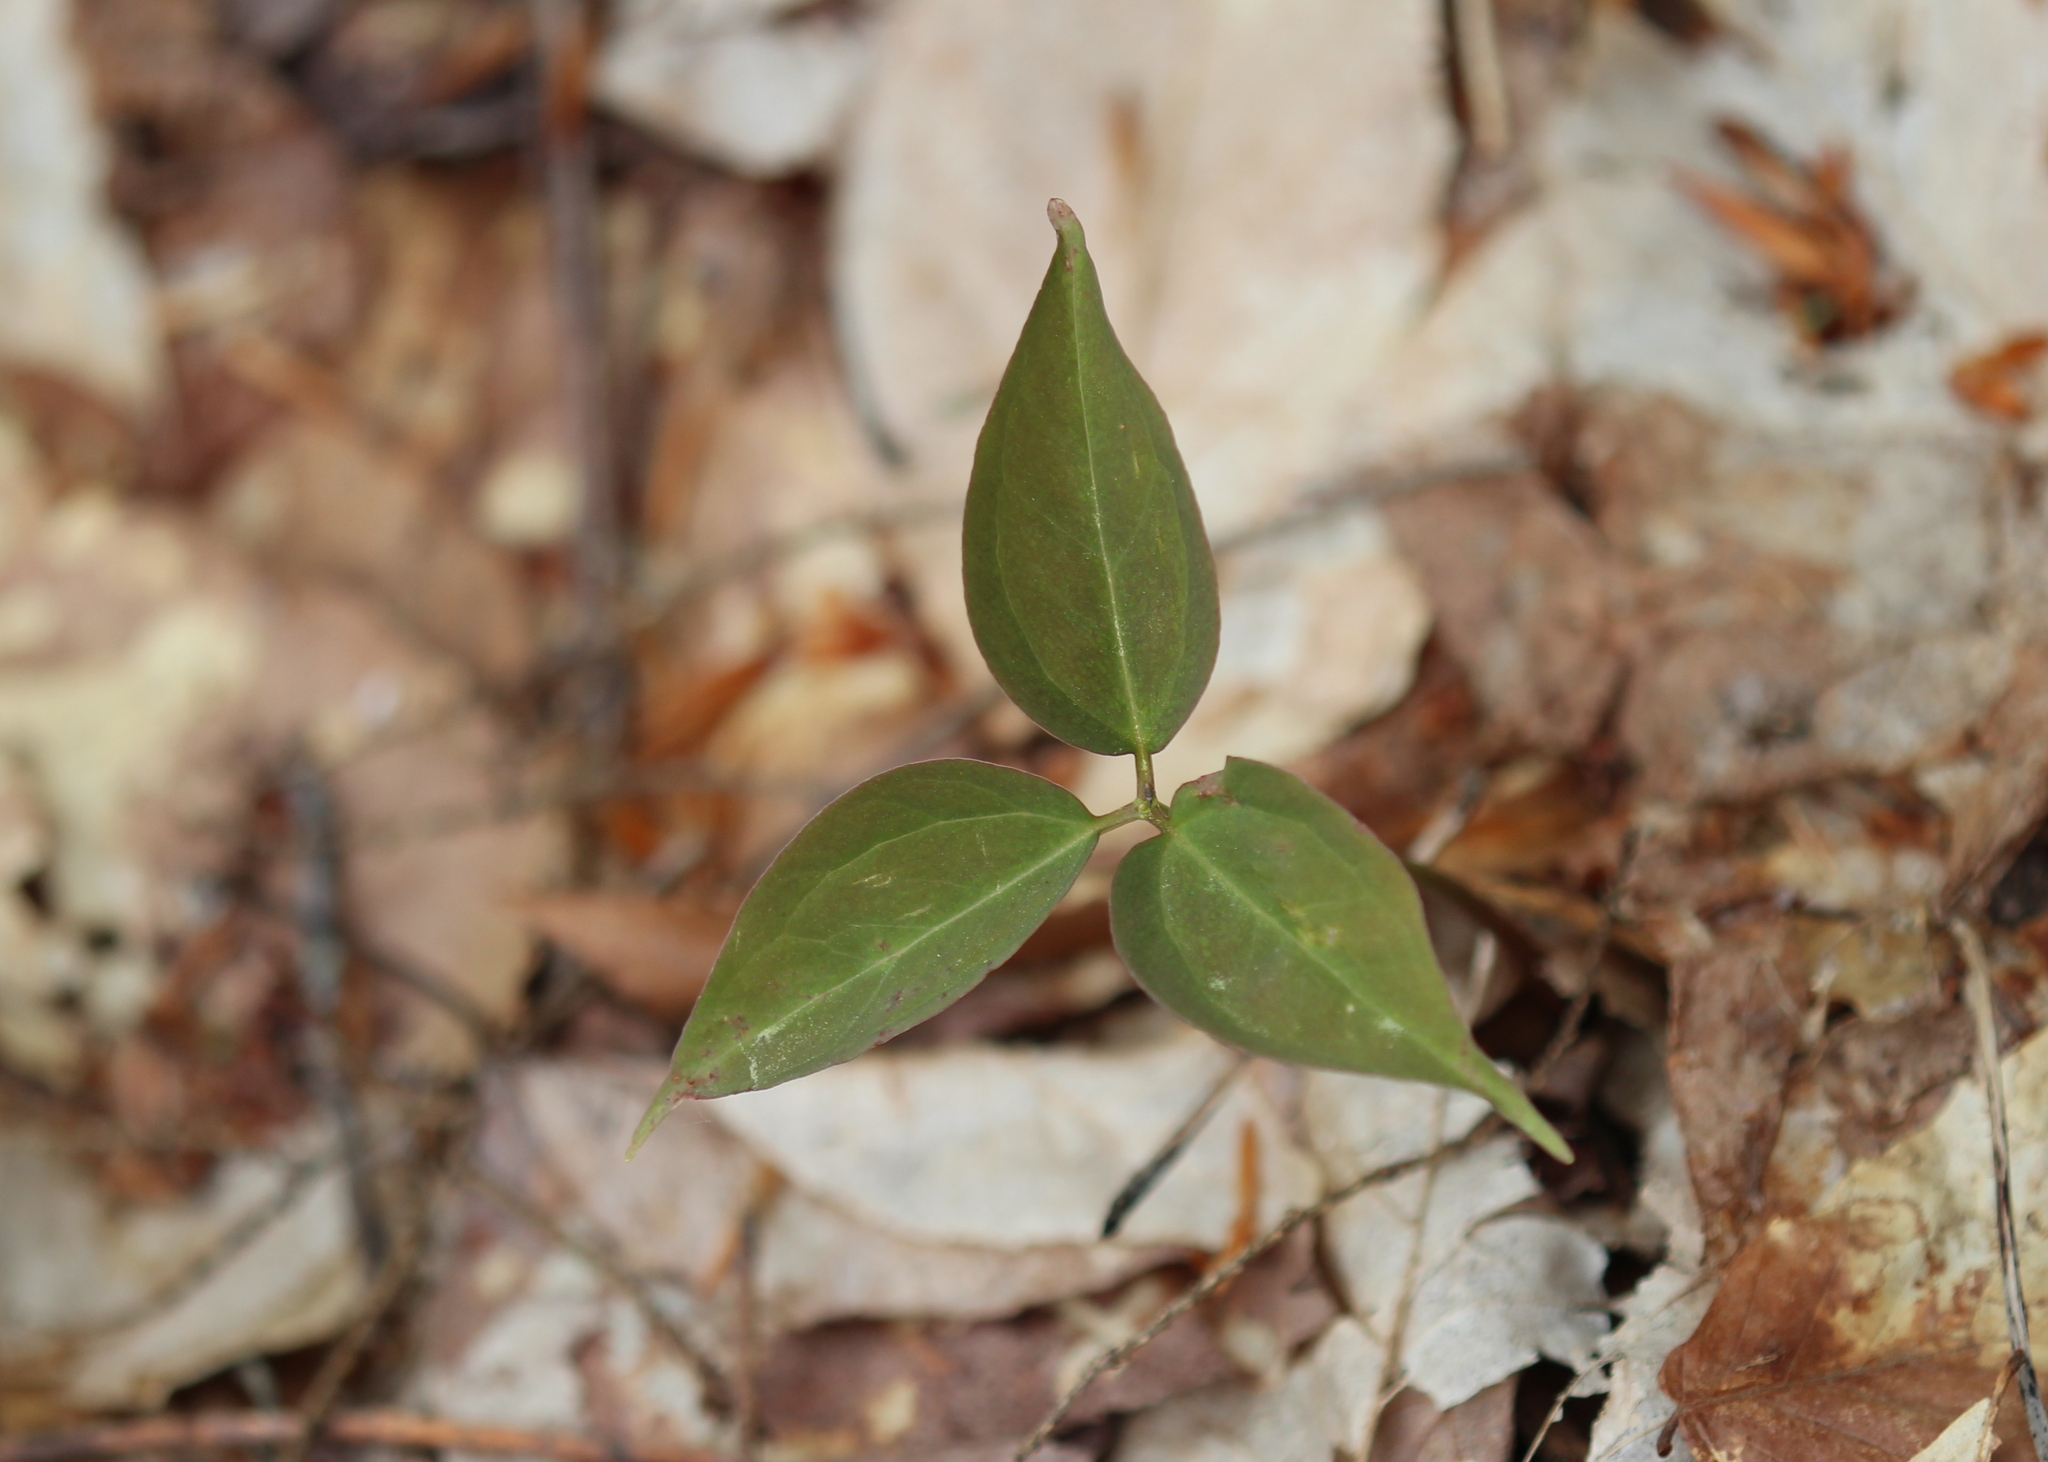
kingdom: Plantae
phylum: Tracheophyta
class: Liliopsida
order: Liliales
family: Melanthiaceae
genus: Trillium
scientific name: Trillium undulatum
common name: Paint trillium
